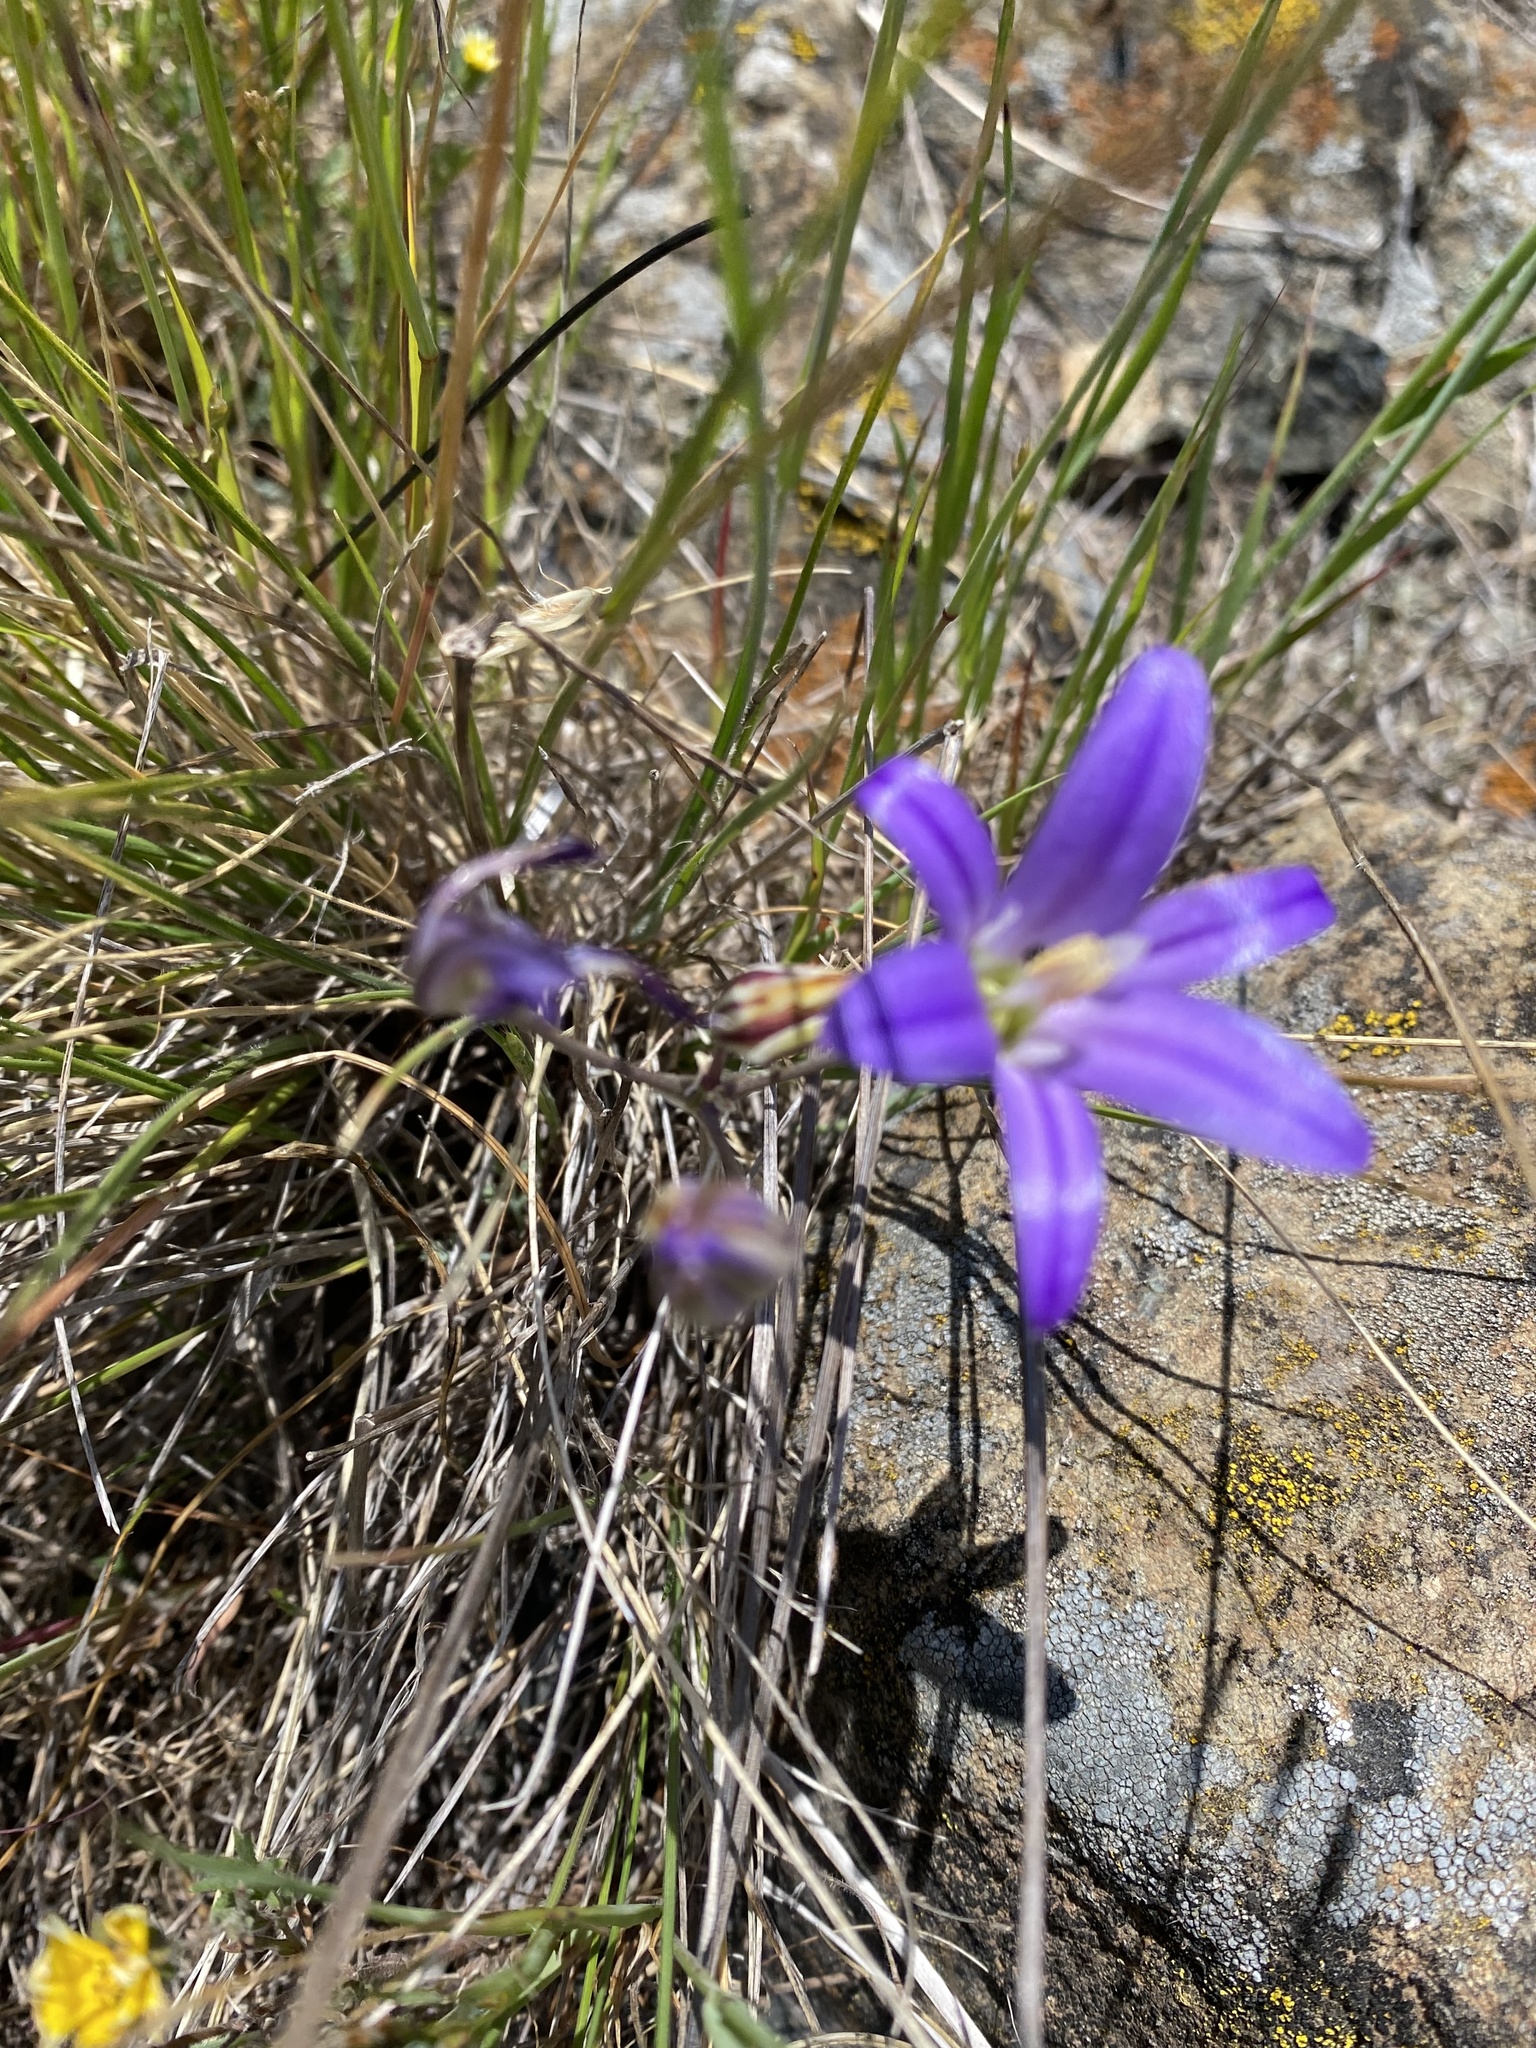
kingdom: Plantae
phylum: Tracheophyta
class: Liliopsida
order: Asparagales
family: Asparagaceae
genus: Brodiaea
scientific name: Brodiaea elegans
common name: Elegant cluster-lily
